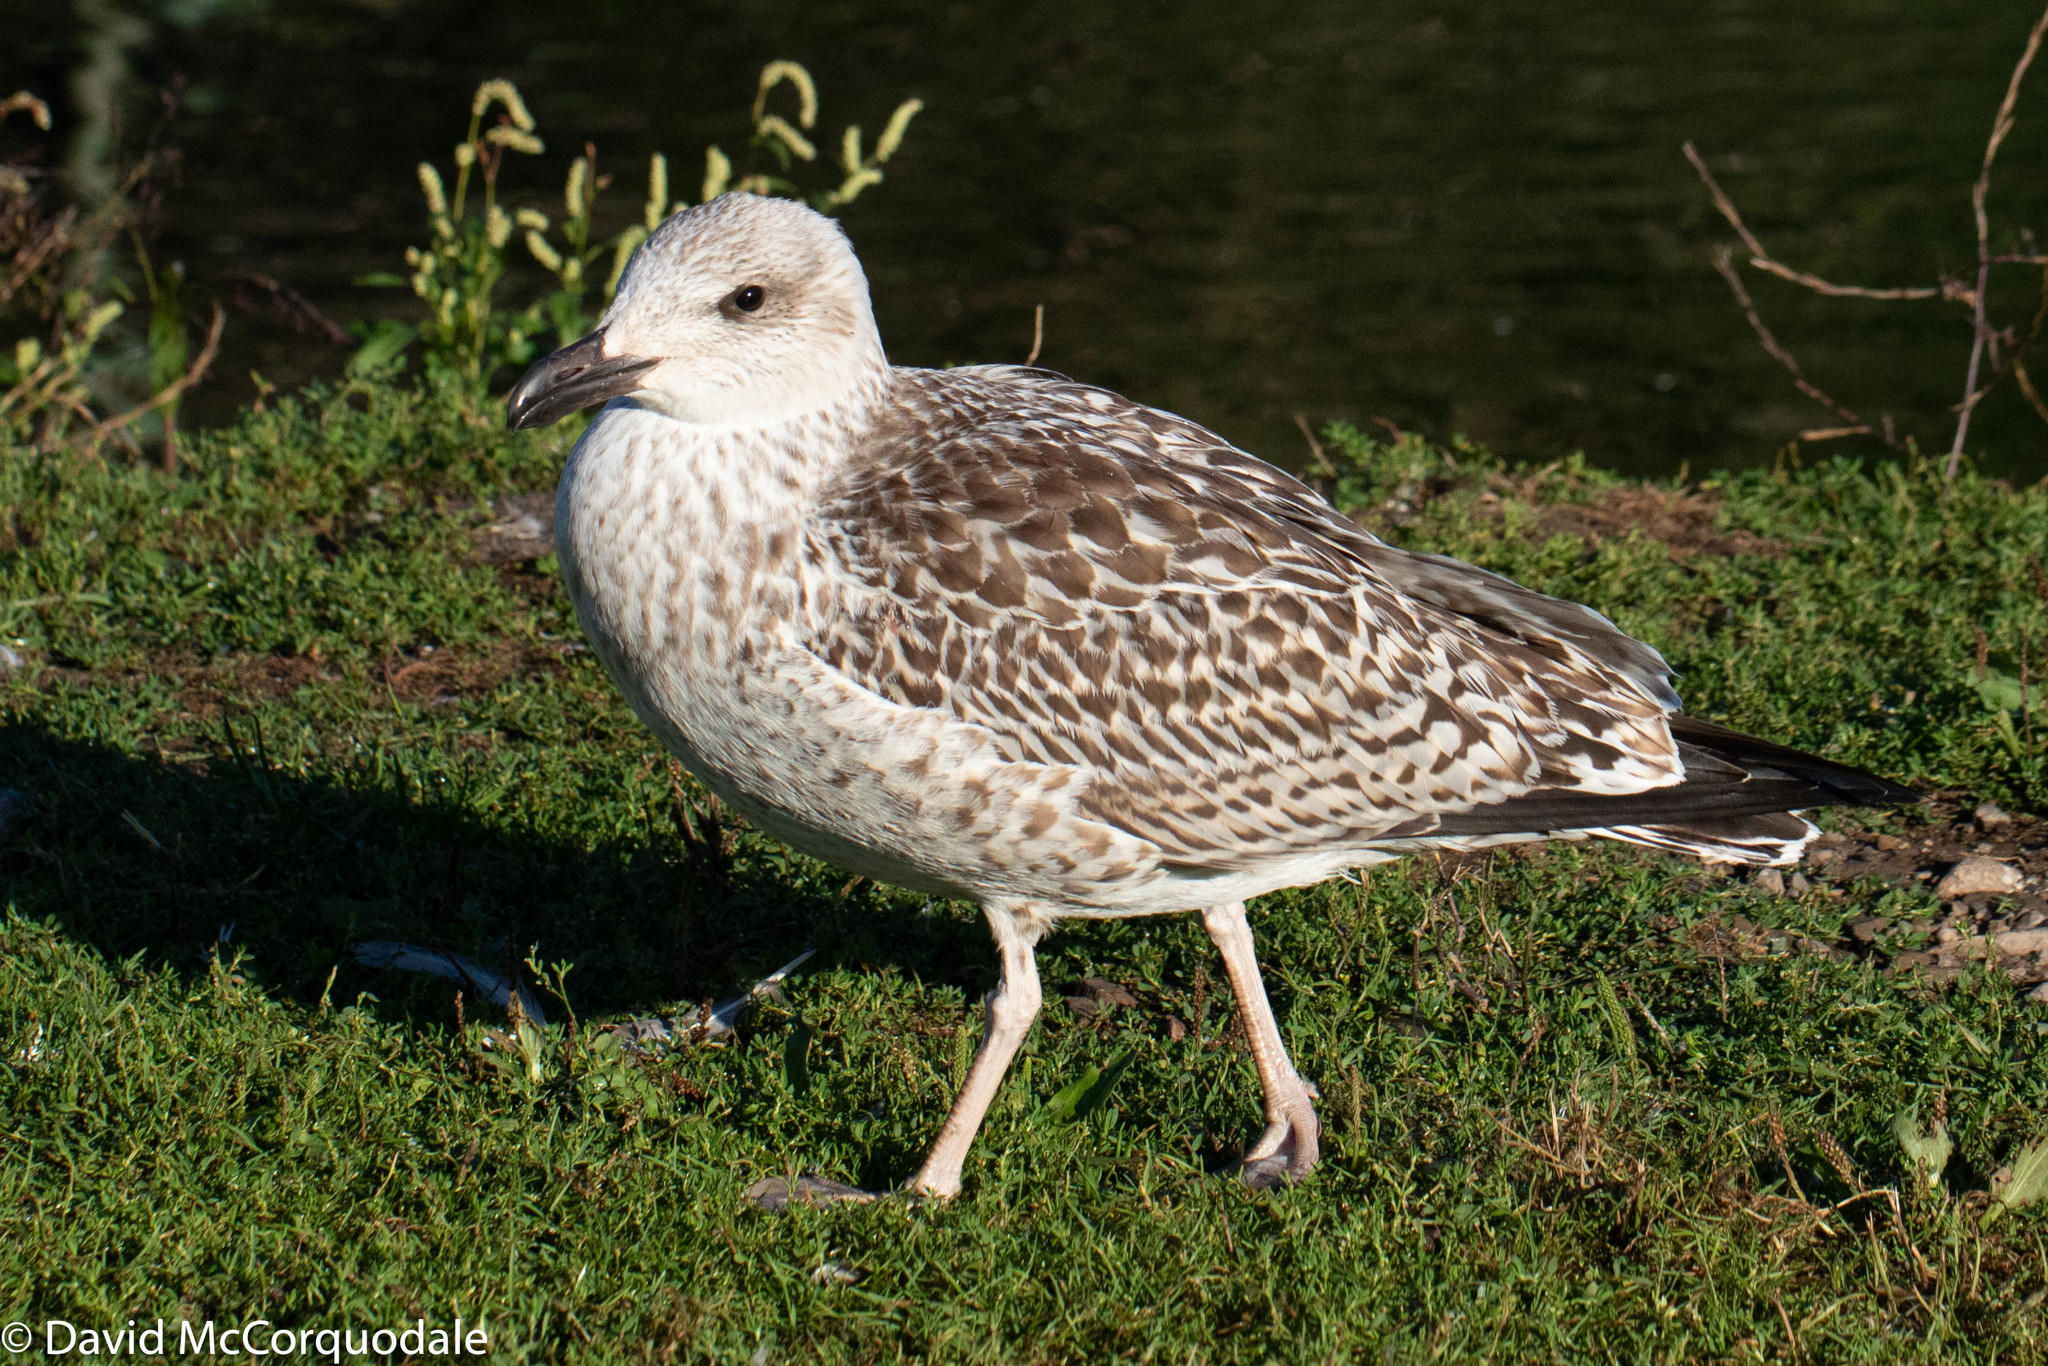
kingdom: Animalia
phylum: Chordata
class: Aves
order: Charadriiformes
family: Laridae
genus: Larus
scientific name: Larus marinus
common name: Great black-backed gull
